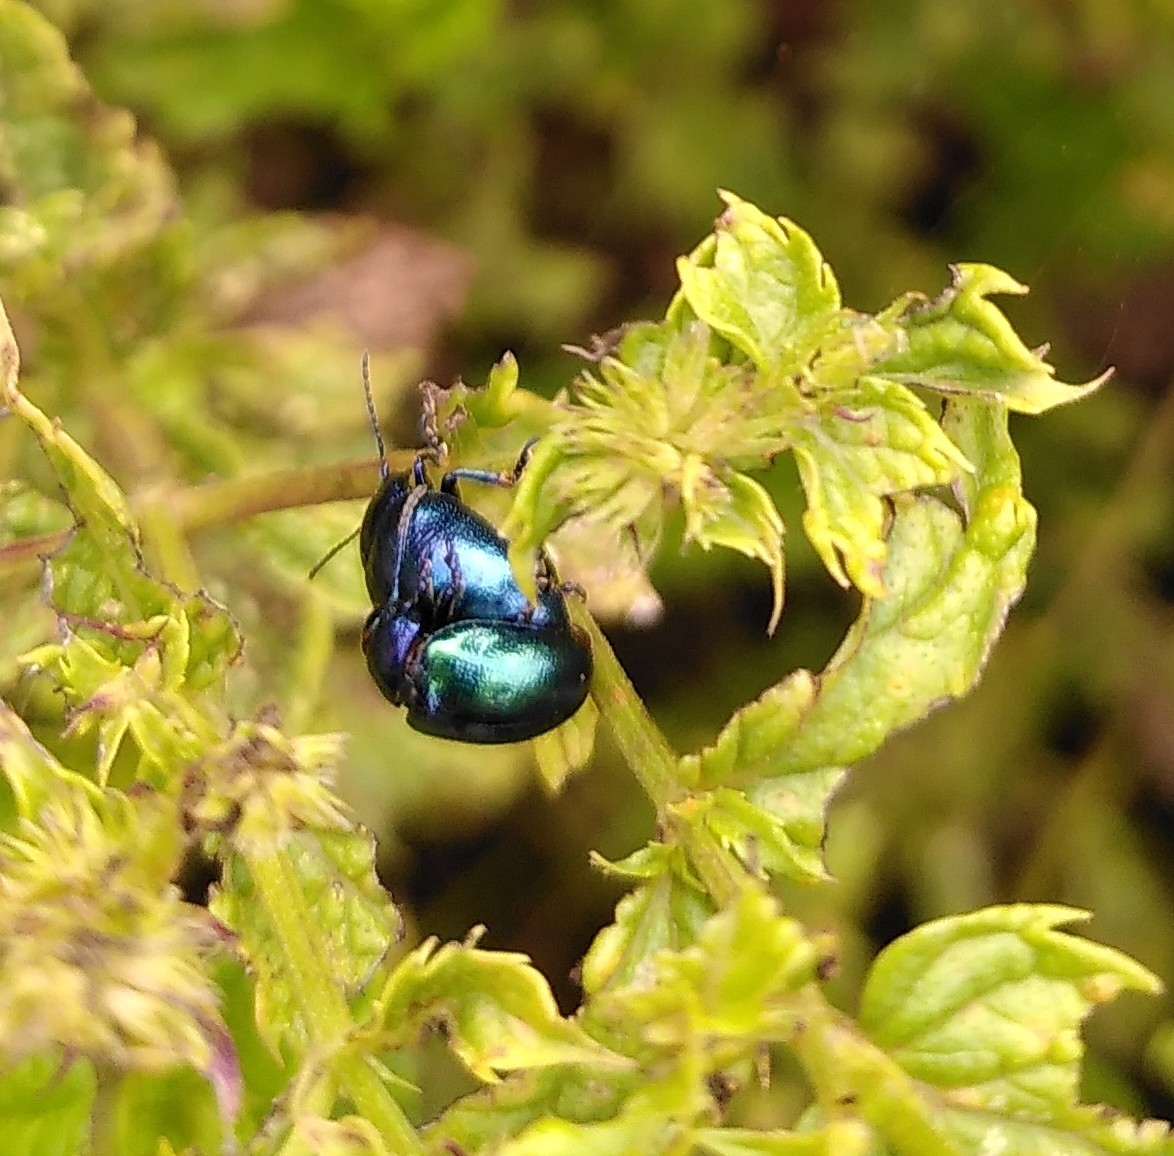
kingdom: Animalia
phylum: Arthropoda
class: Insecta
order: Coleoptera
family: Chrysomelidae
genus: Chrysolina
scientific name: Chrysolina coerulans
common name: Blue mint beetle
